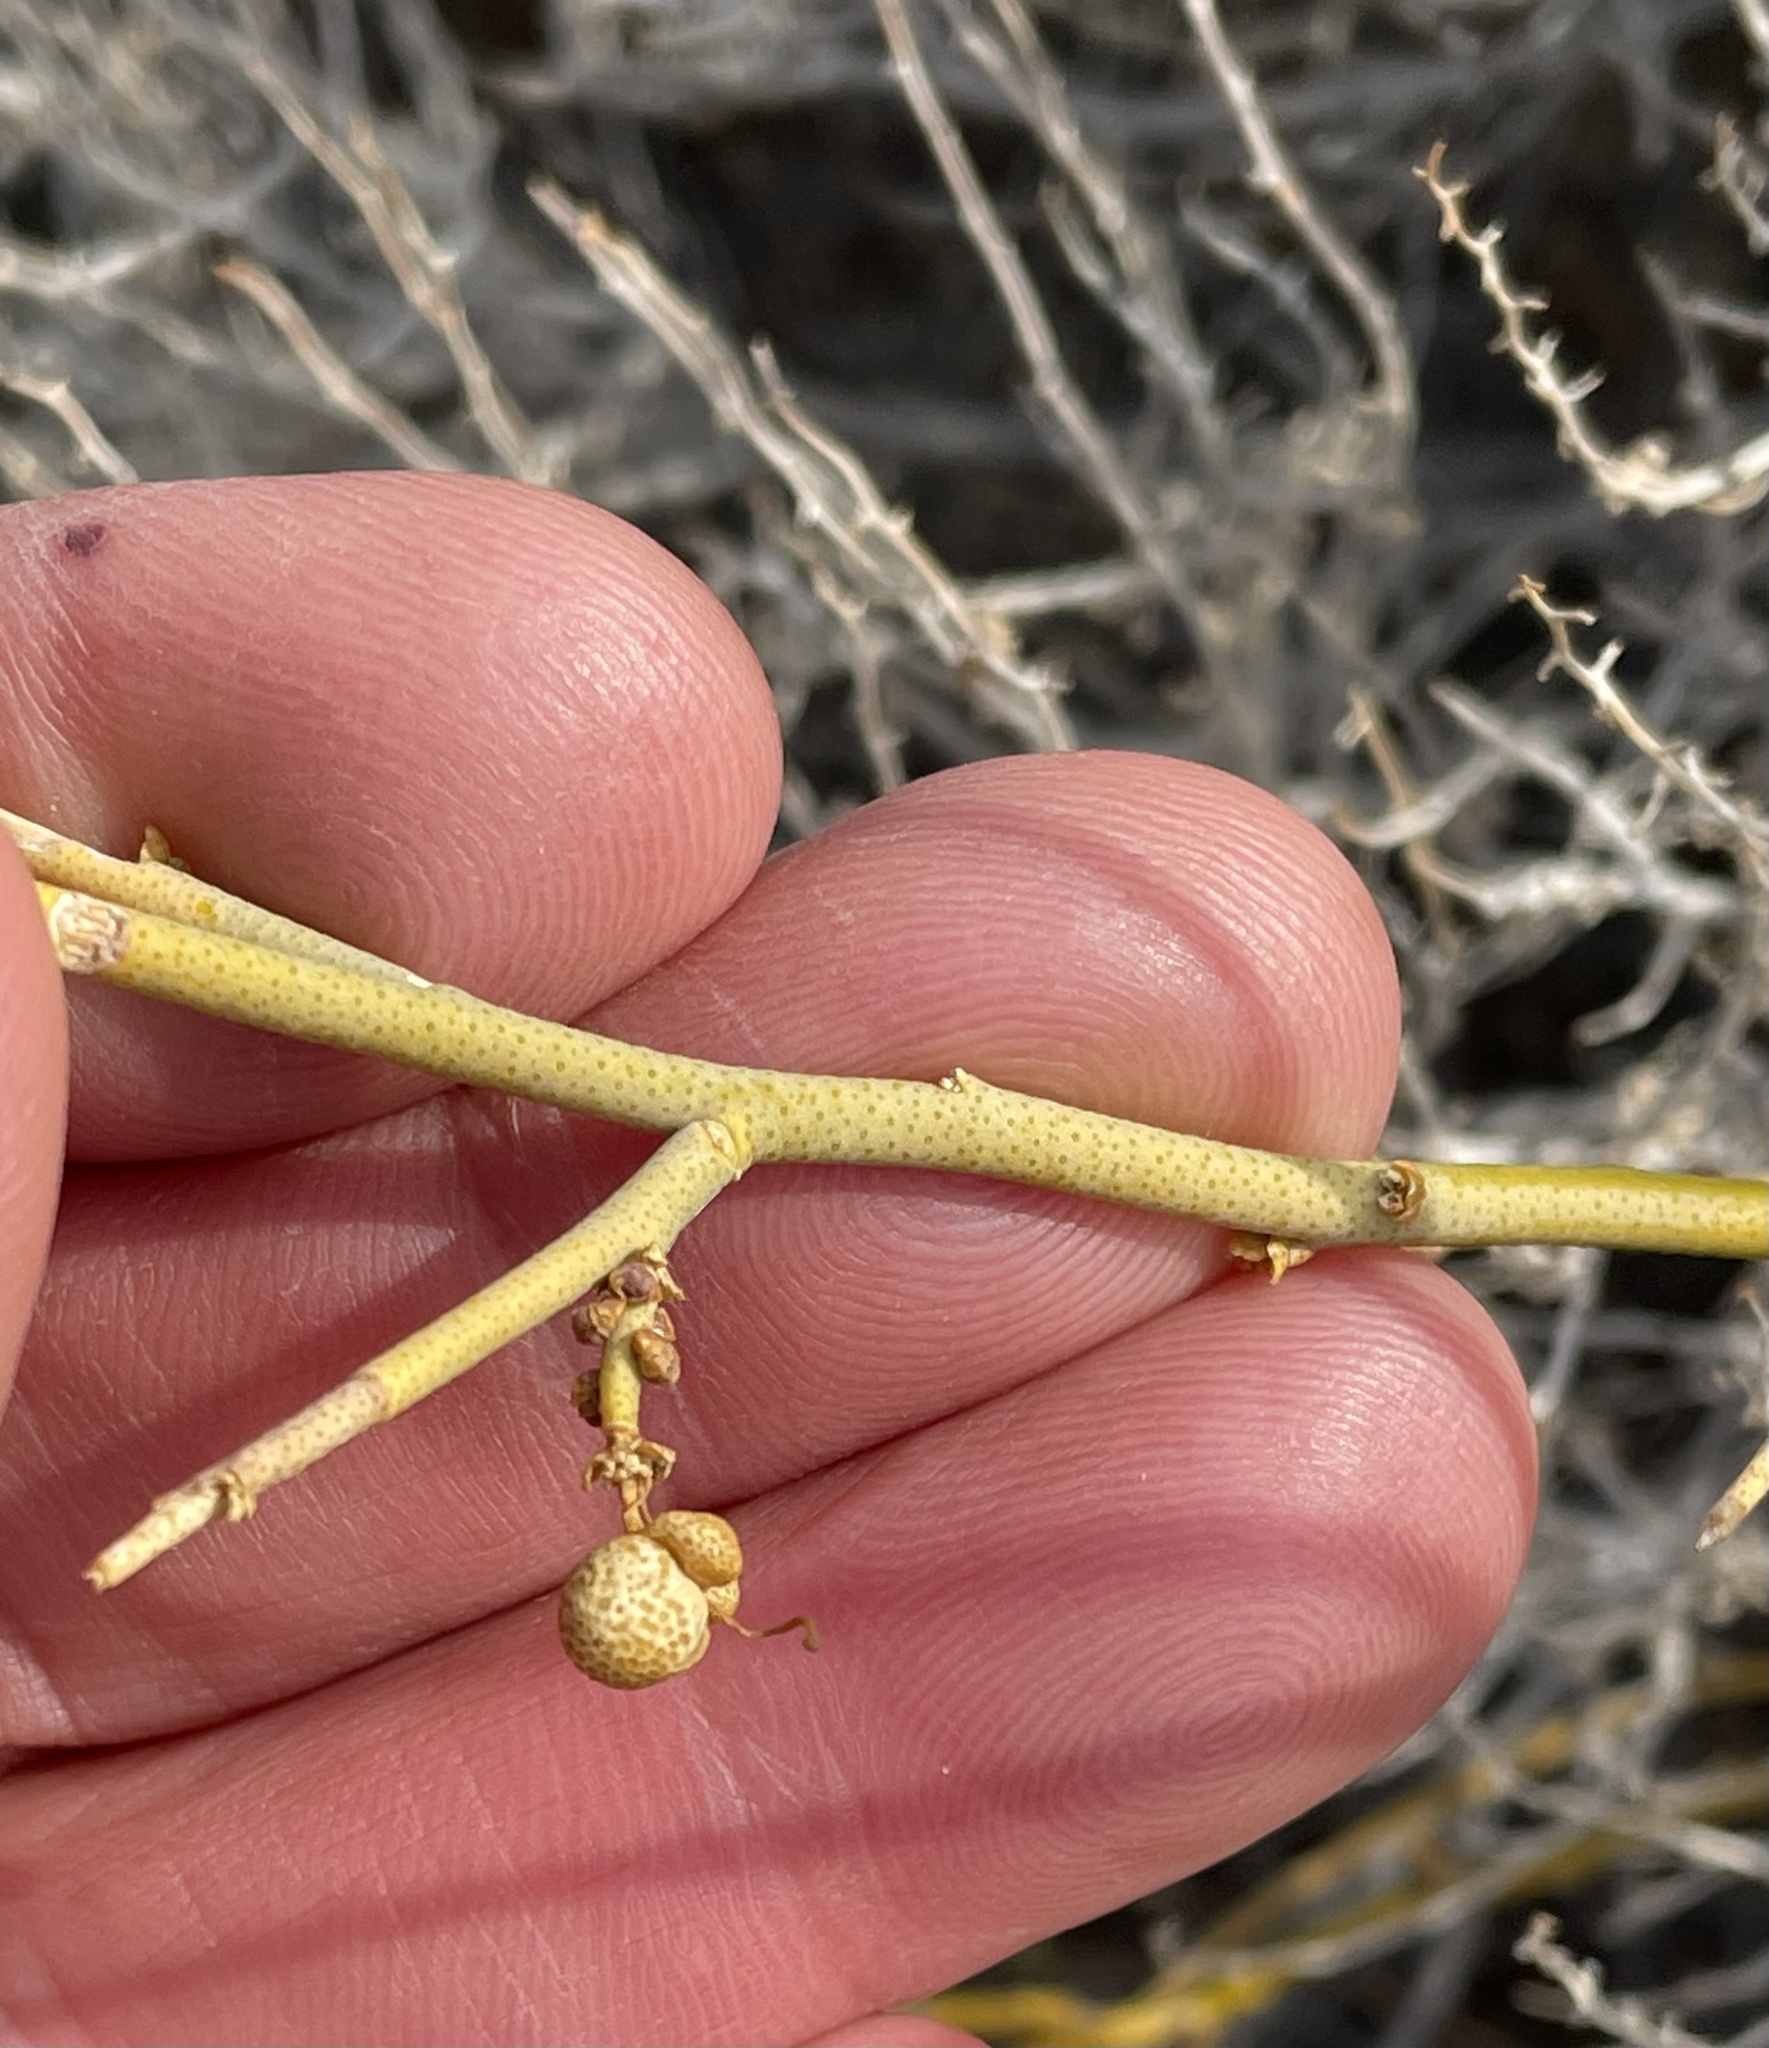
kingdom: Plantae
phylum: Tracheophyta
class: Magnoliopsida
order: Sapindales
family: Rutaceae
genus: Thamnosma
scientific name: Thamnosma montana
